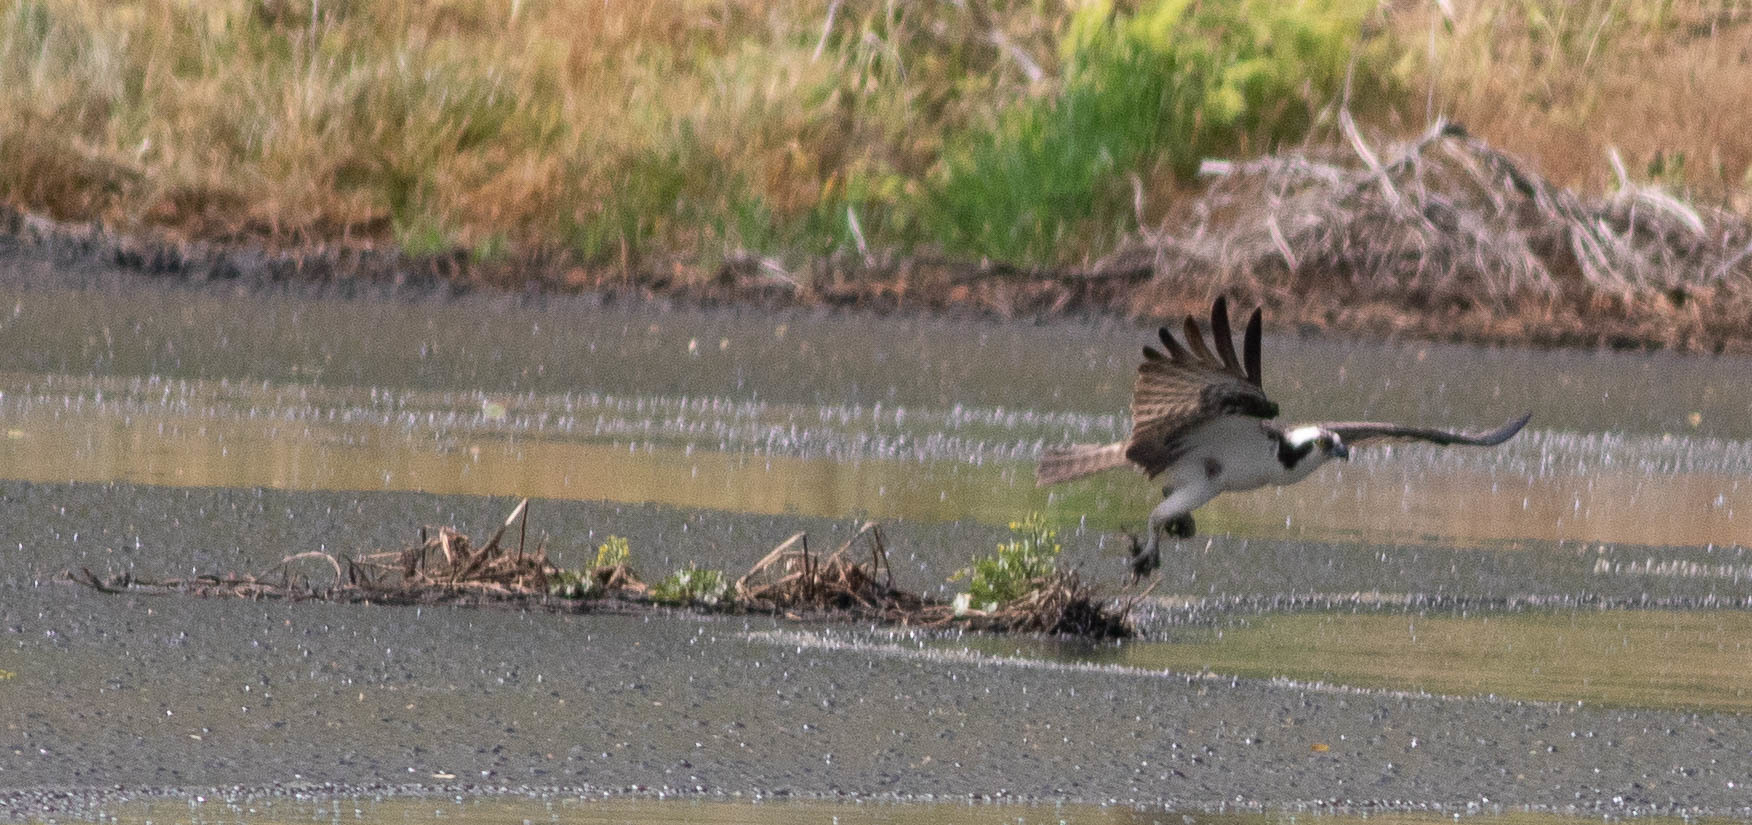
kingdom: Animalia
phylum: Chordata
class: Aves
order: Accipitriformes
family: Pandionidae
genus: Pandion
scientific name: Pandion haliaetus
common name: Osprey
